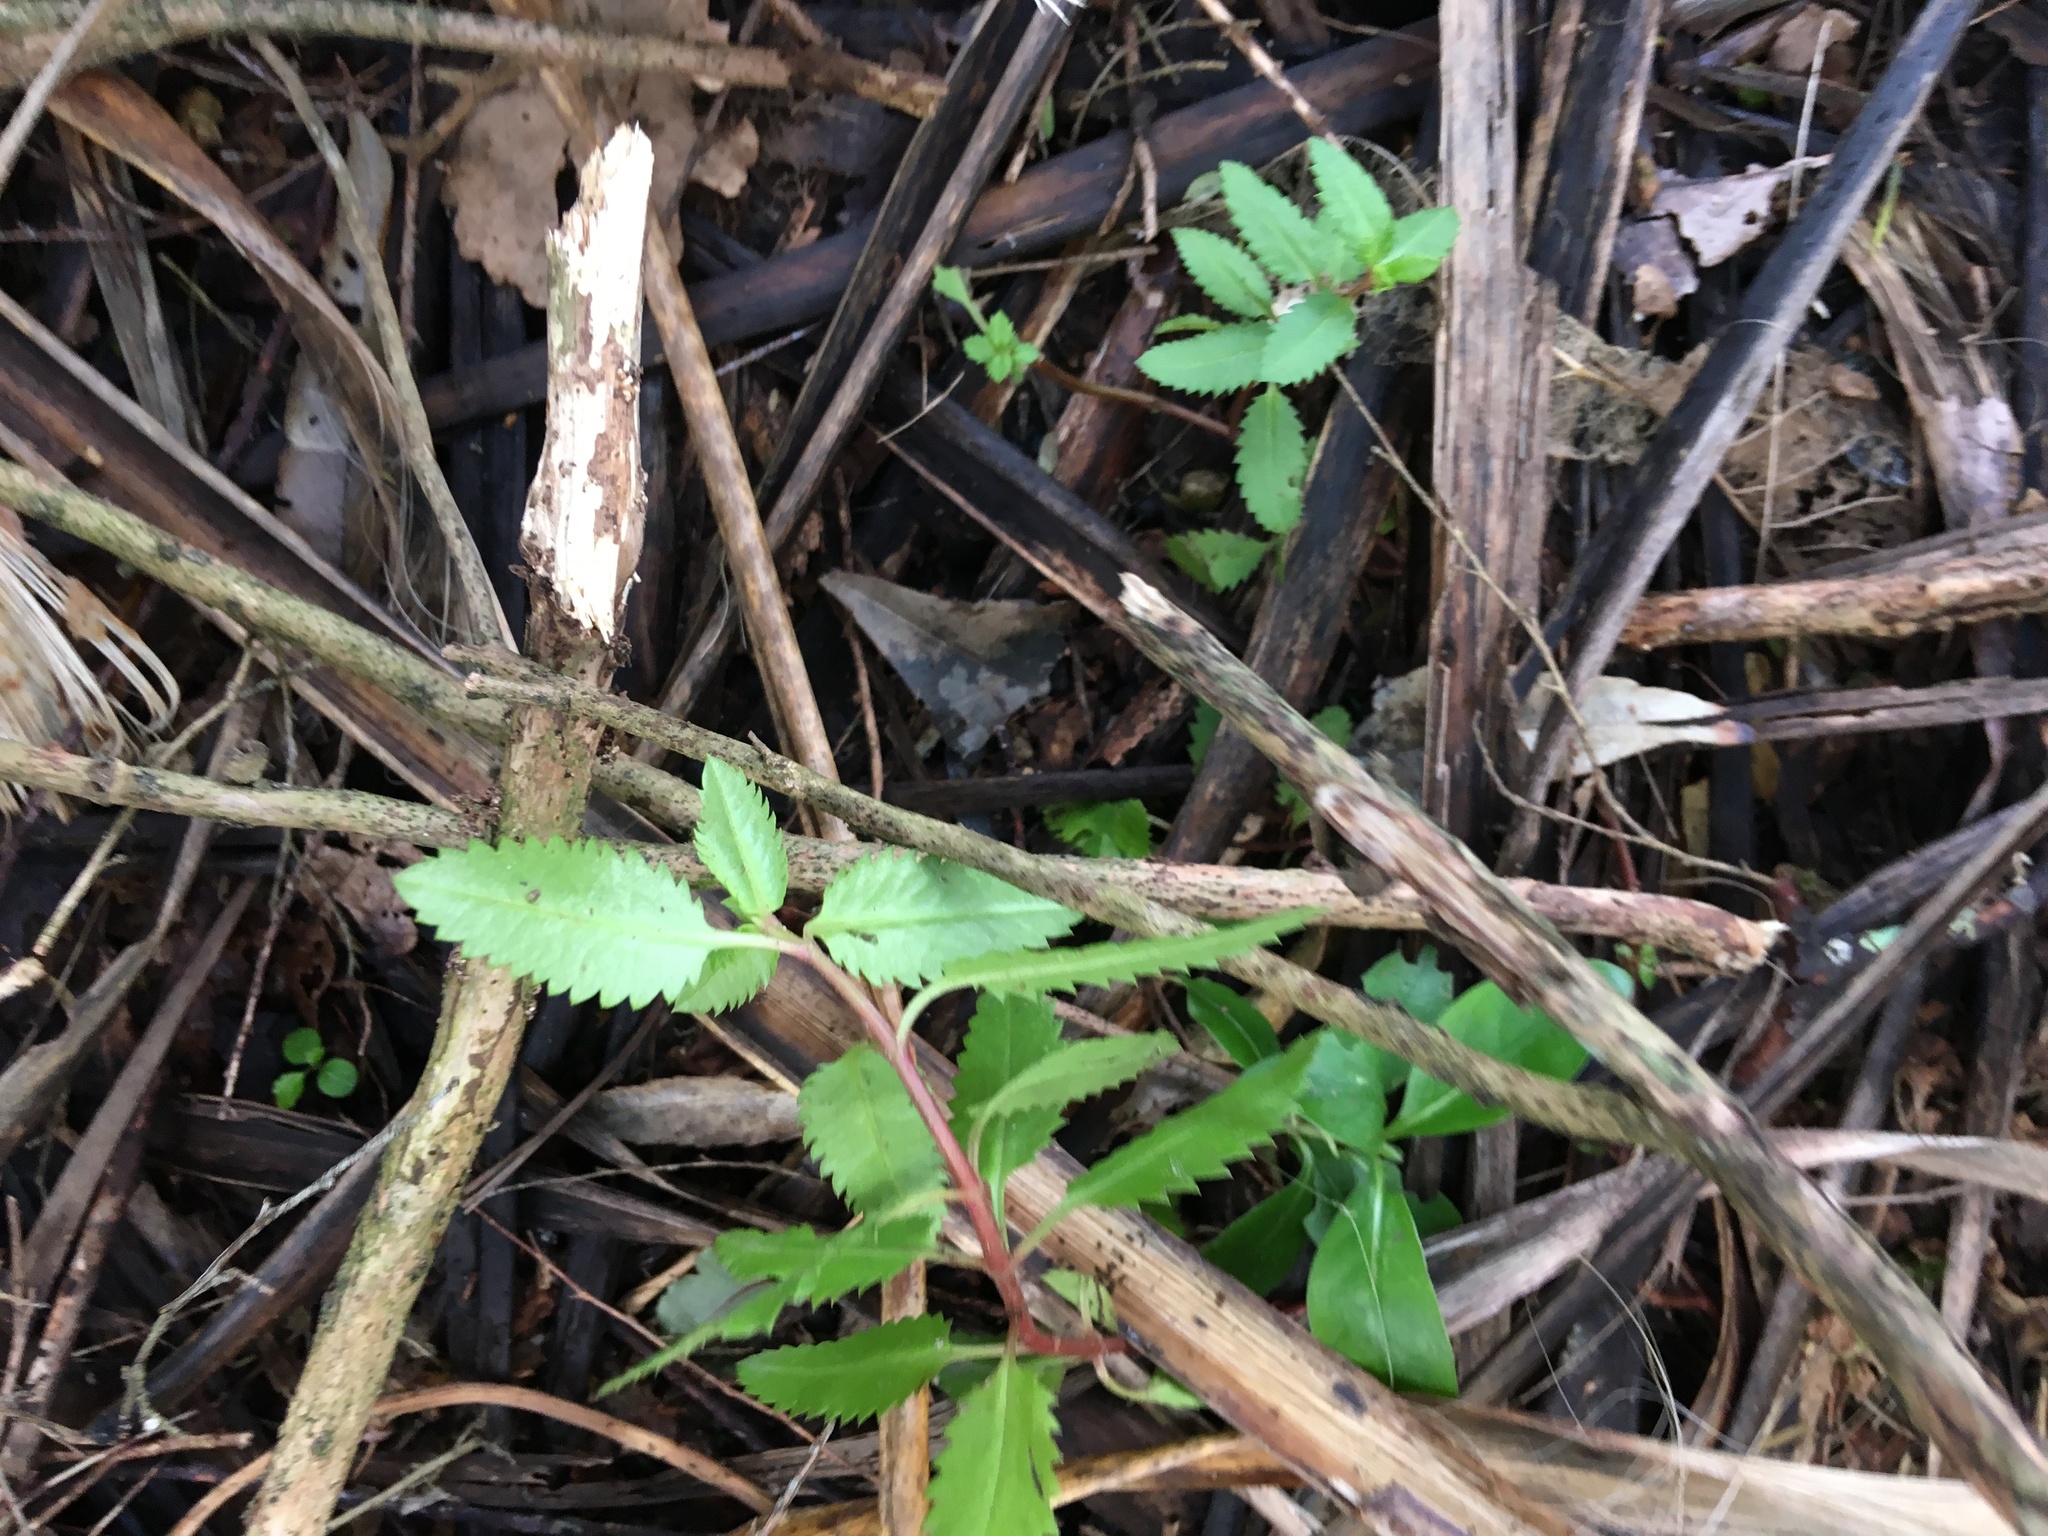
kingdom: Plantae
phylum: Tracheophyta
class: Magnoliopsida
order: Saxifragales
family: Haloragaceae
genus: Haloragis
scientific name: Haloragis erecta
